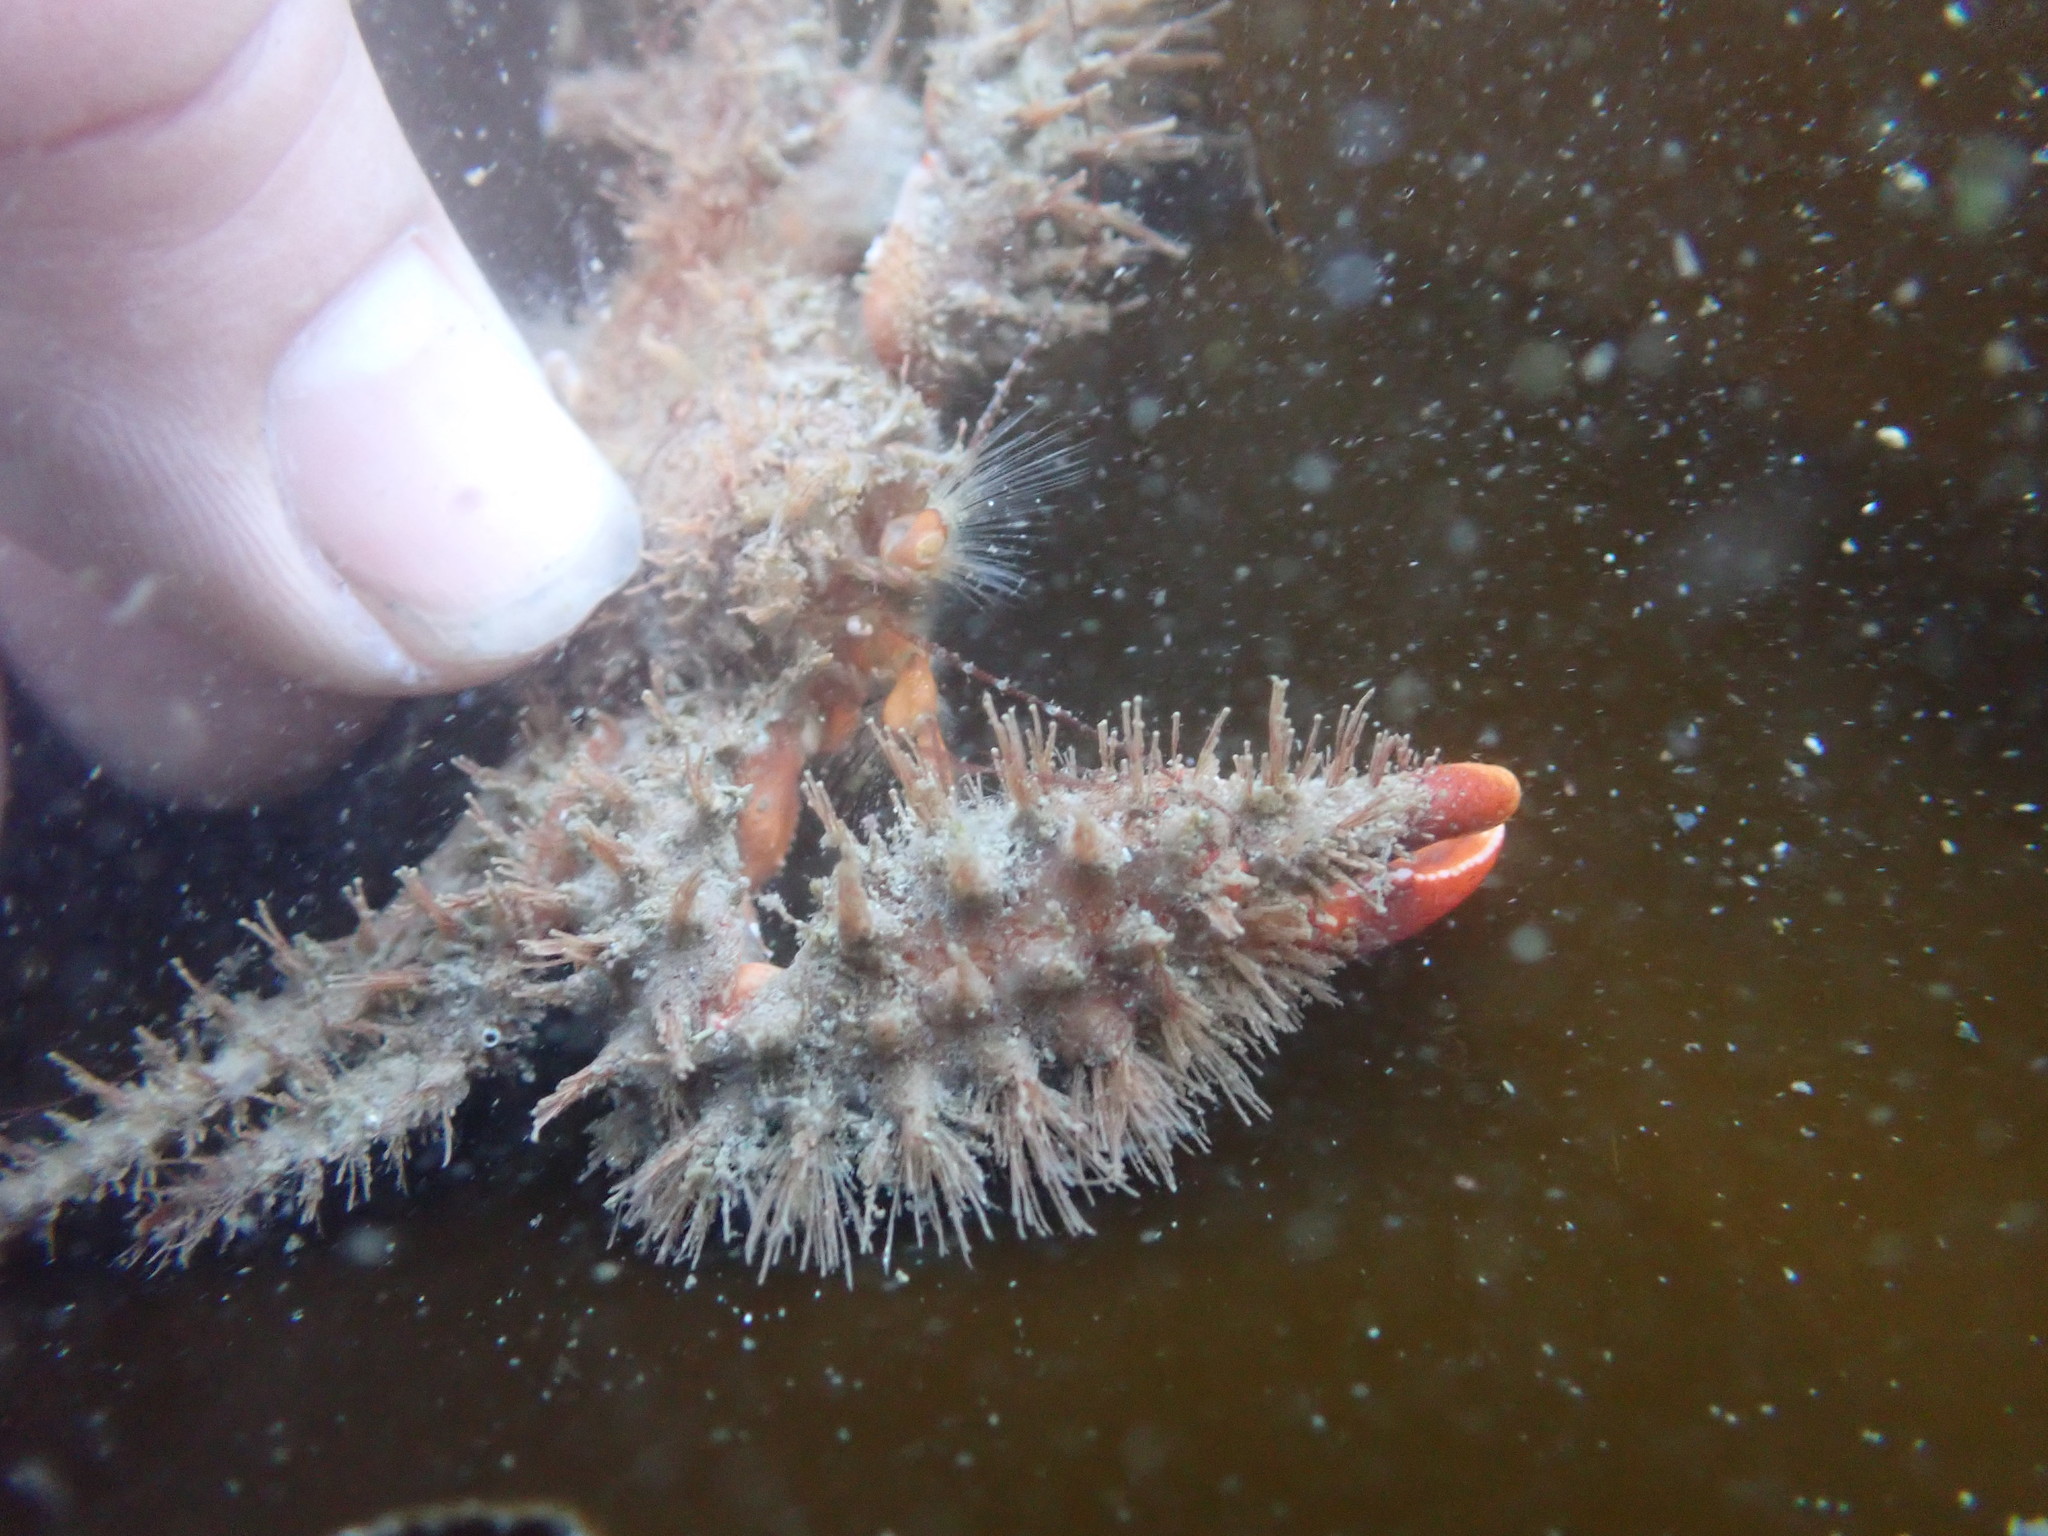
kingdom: Animalia
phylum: Arthropoda
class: Malacostraca
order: Decapoda
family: Hapalogastridae
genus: Hapalogaster
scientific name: Hapalogaster mertensii
